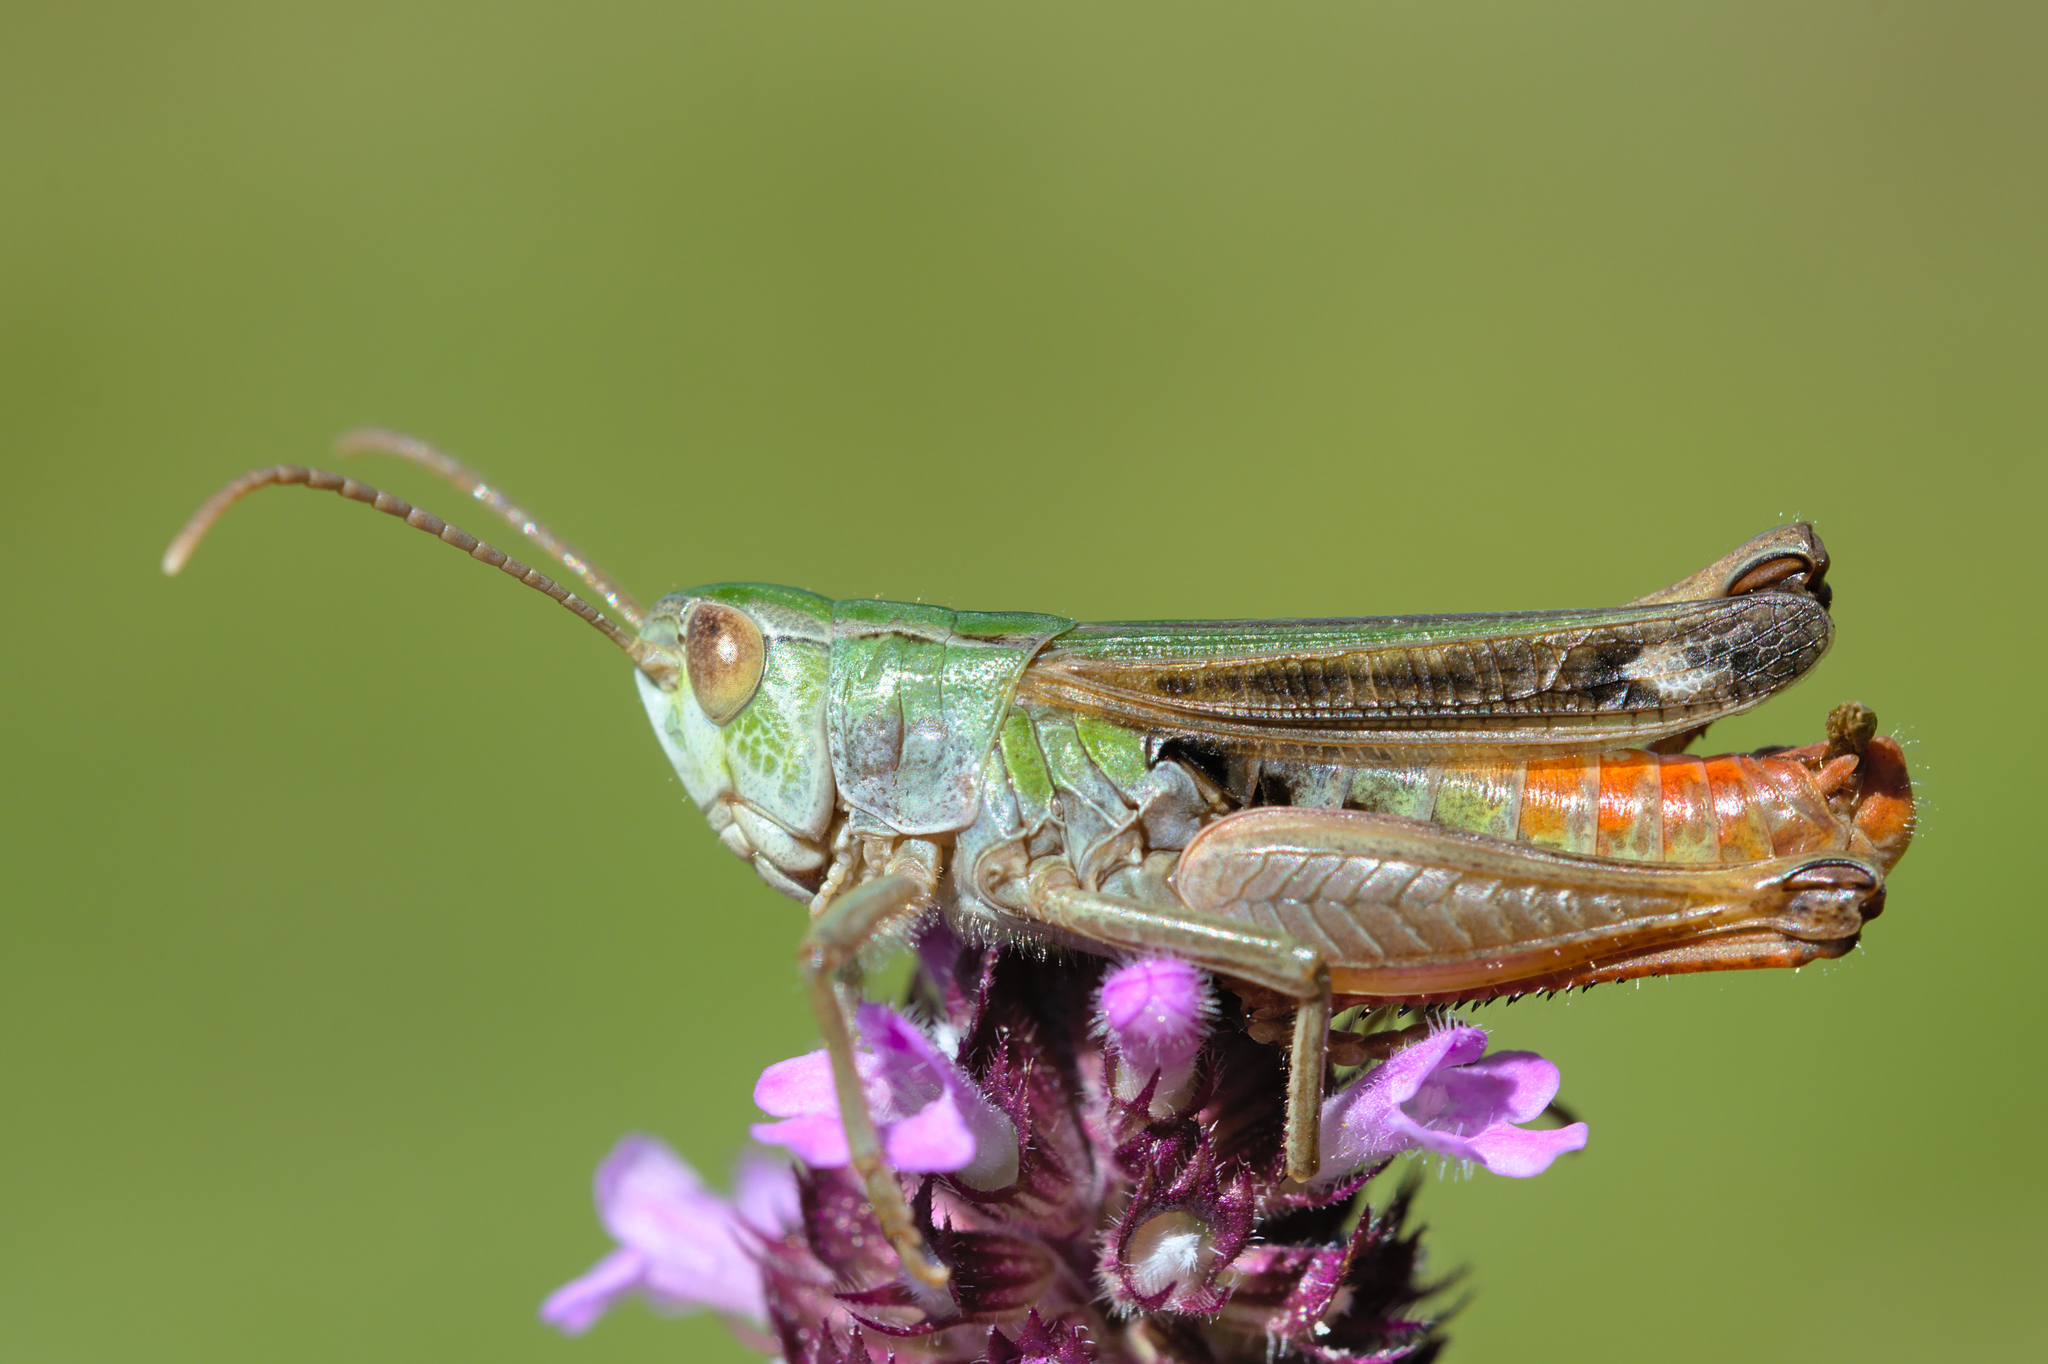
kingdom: Animalia
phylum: Arthropoda
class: Insecta
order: Orthoptera
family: Acrididae
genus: Stenobothrus
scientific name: Stenobothrus nigromaculatus
